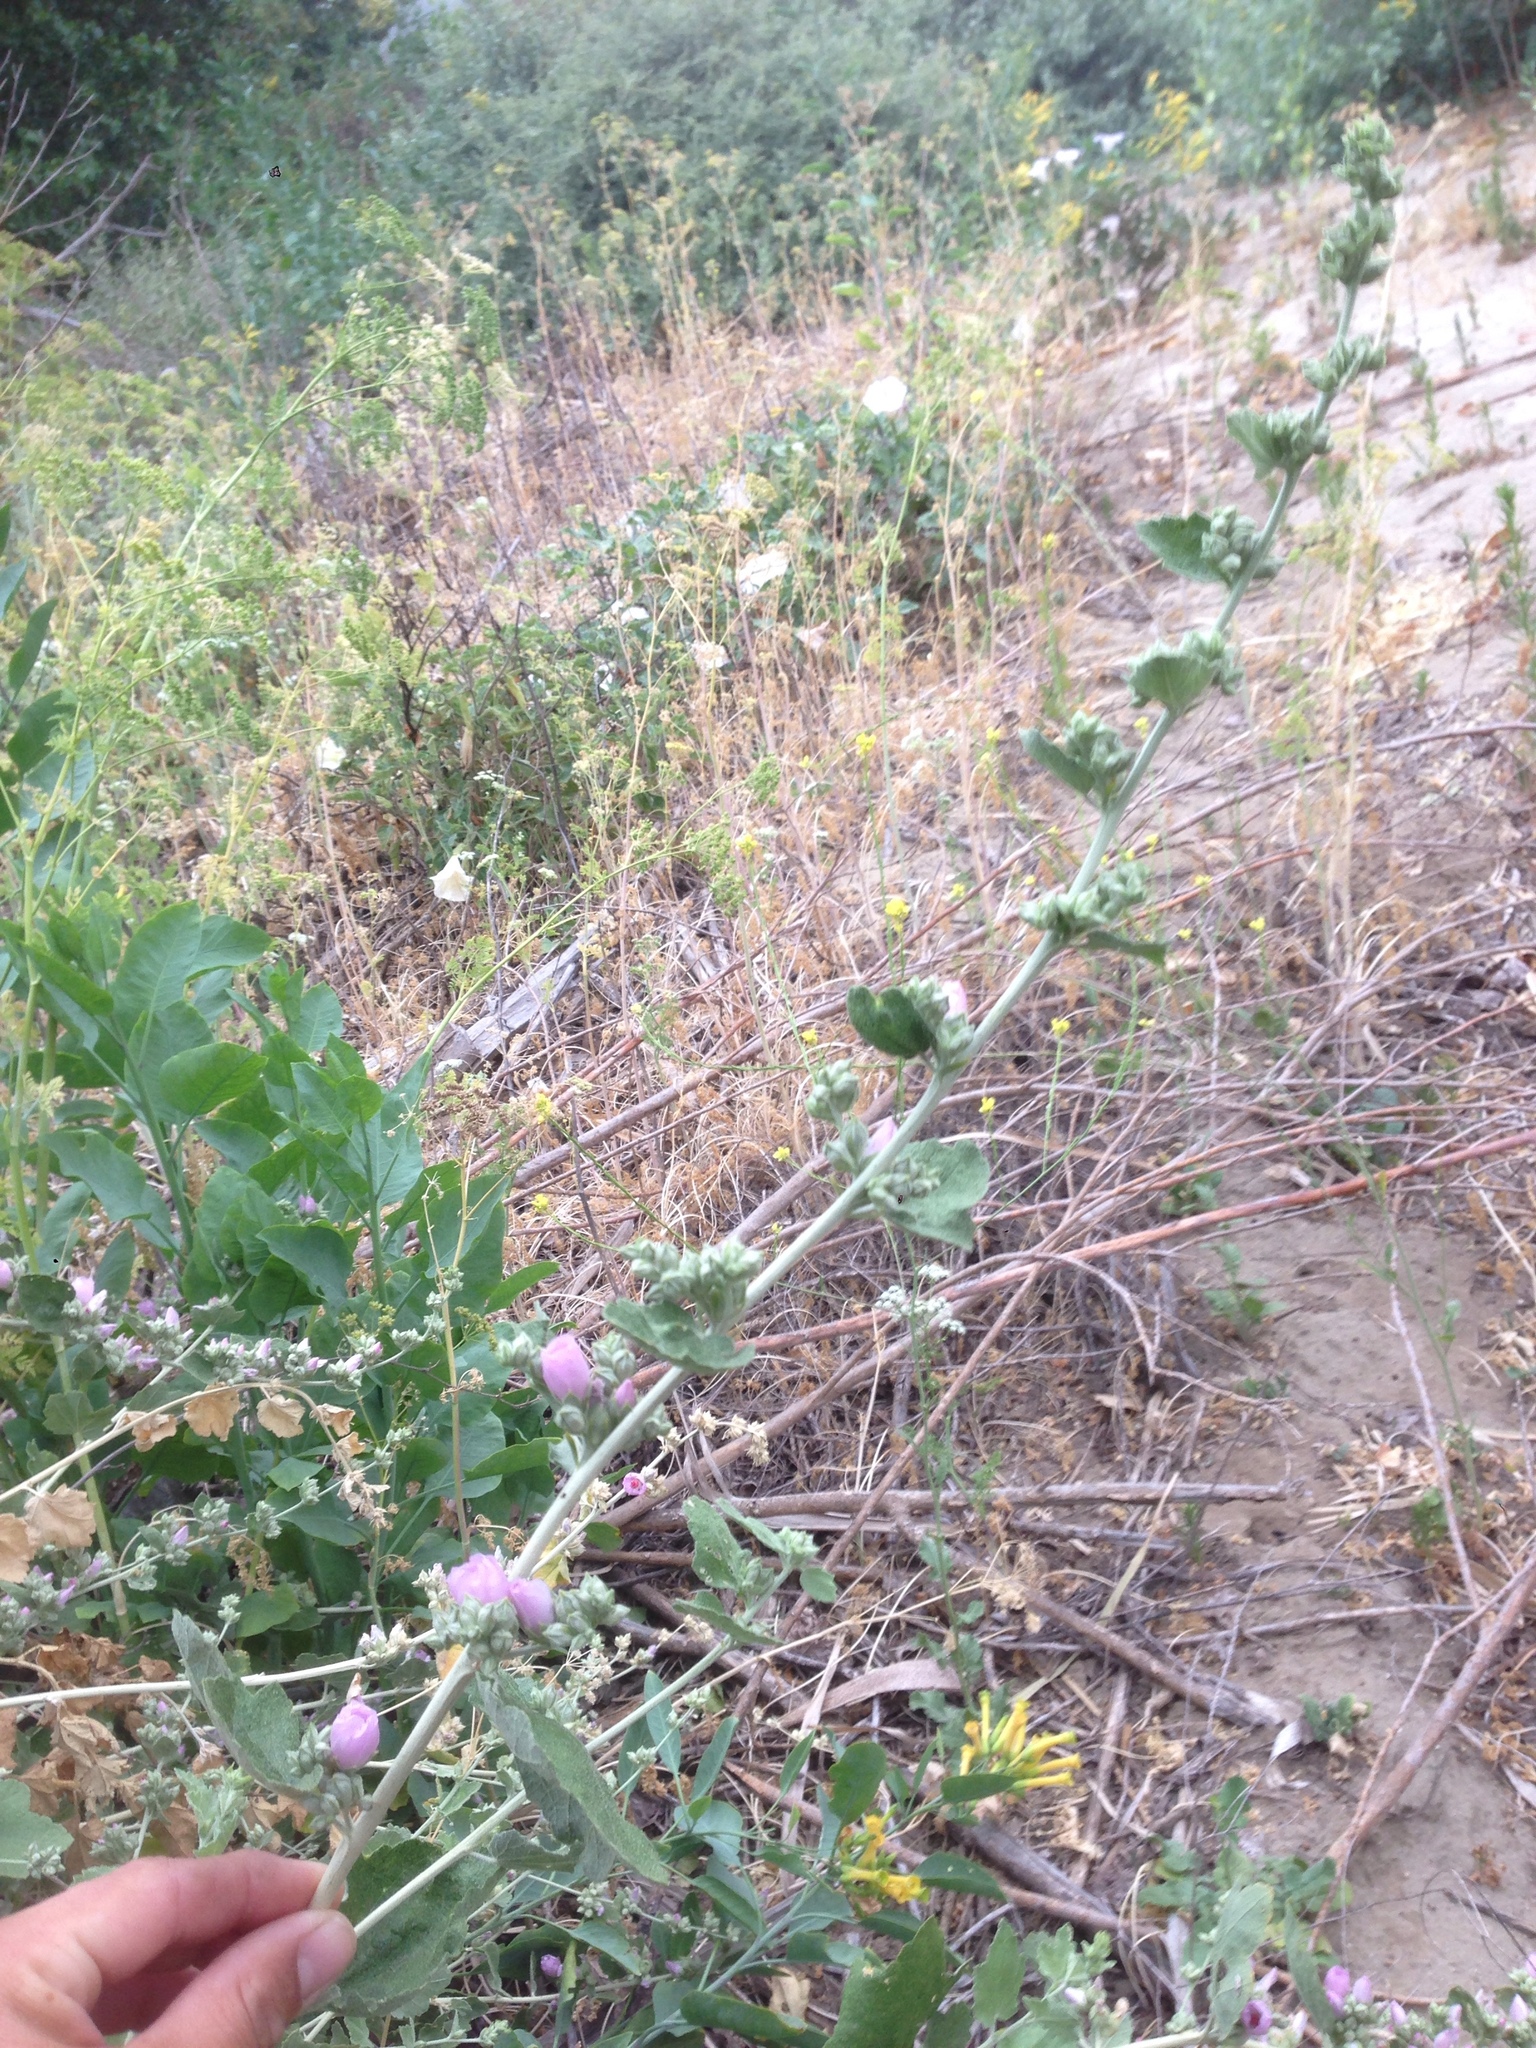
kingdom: Plantae
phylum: Tracheophyta
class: Magnoliopsida
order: Malvales
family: Malvaceae
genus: Malacothamnus
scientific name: Malacothamnus fasciculatus
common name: Sant cruz island bush-mallow
